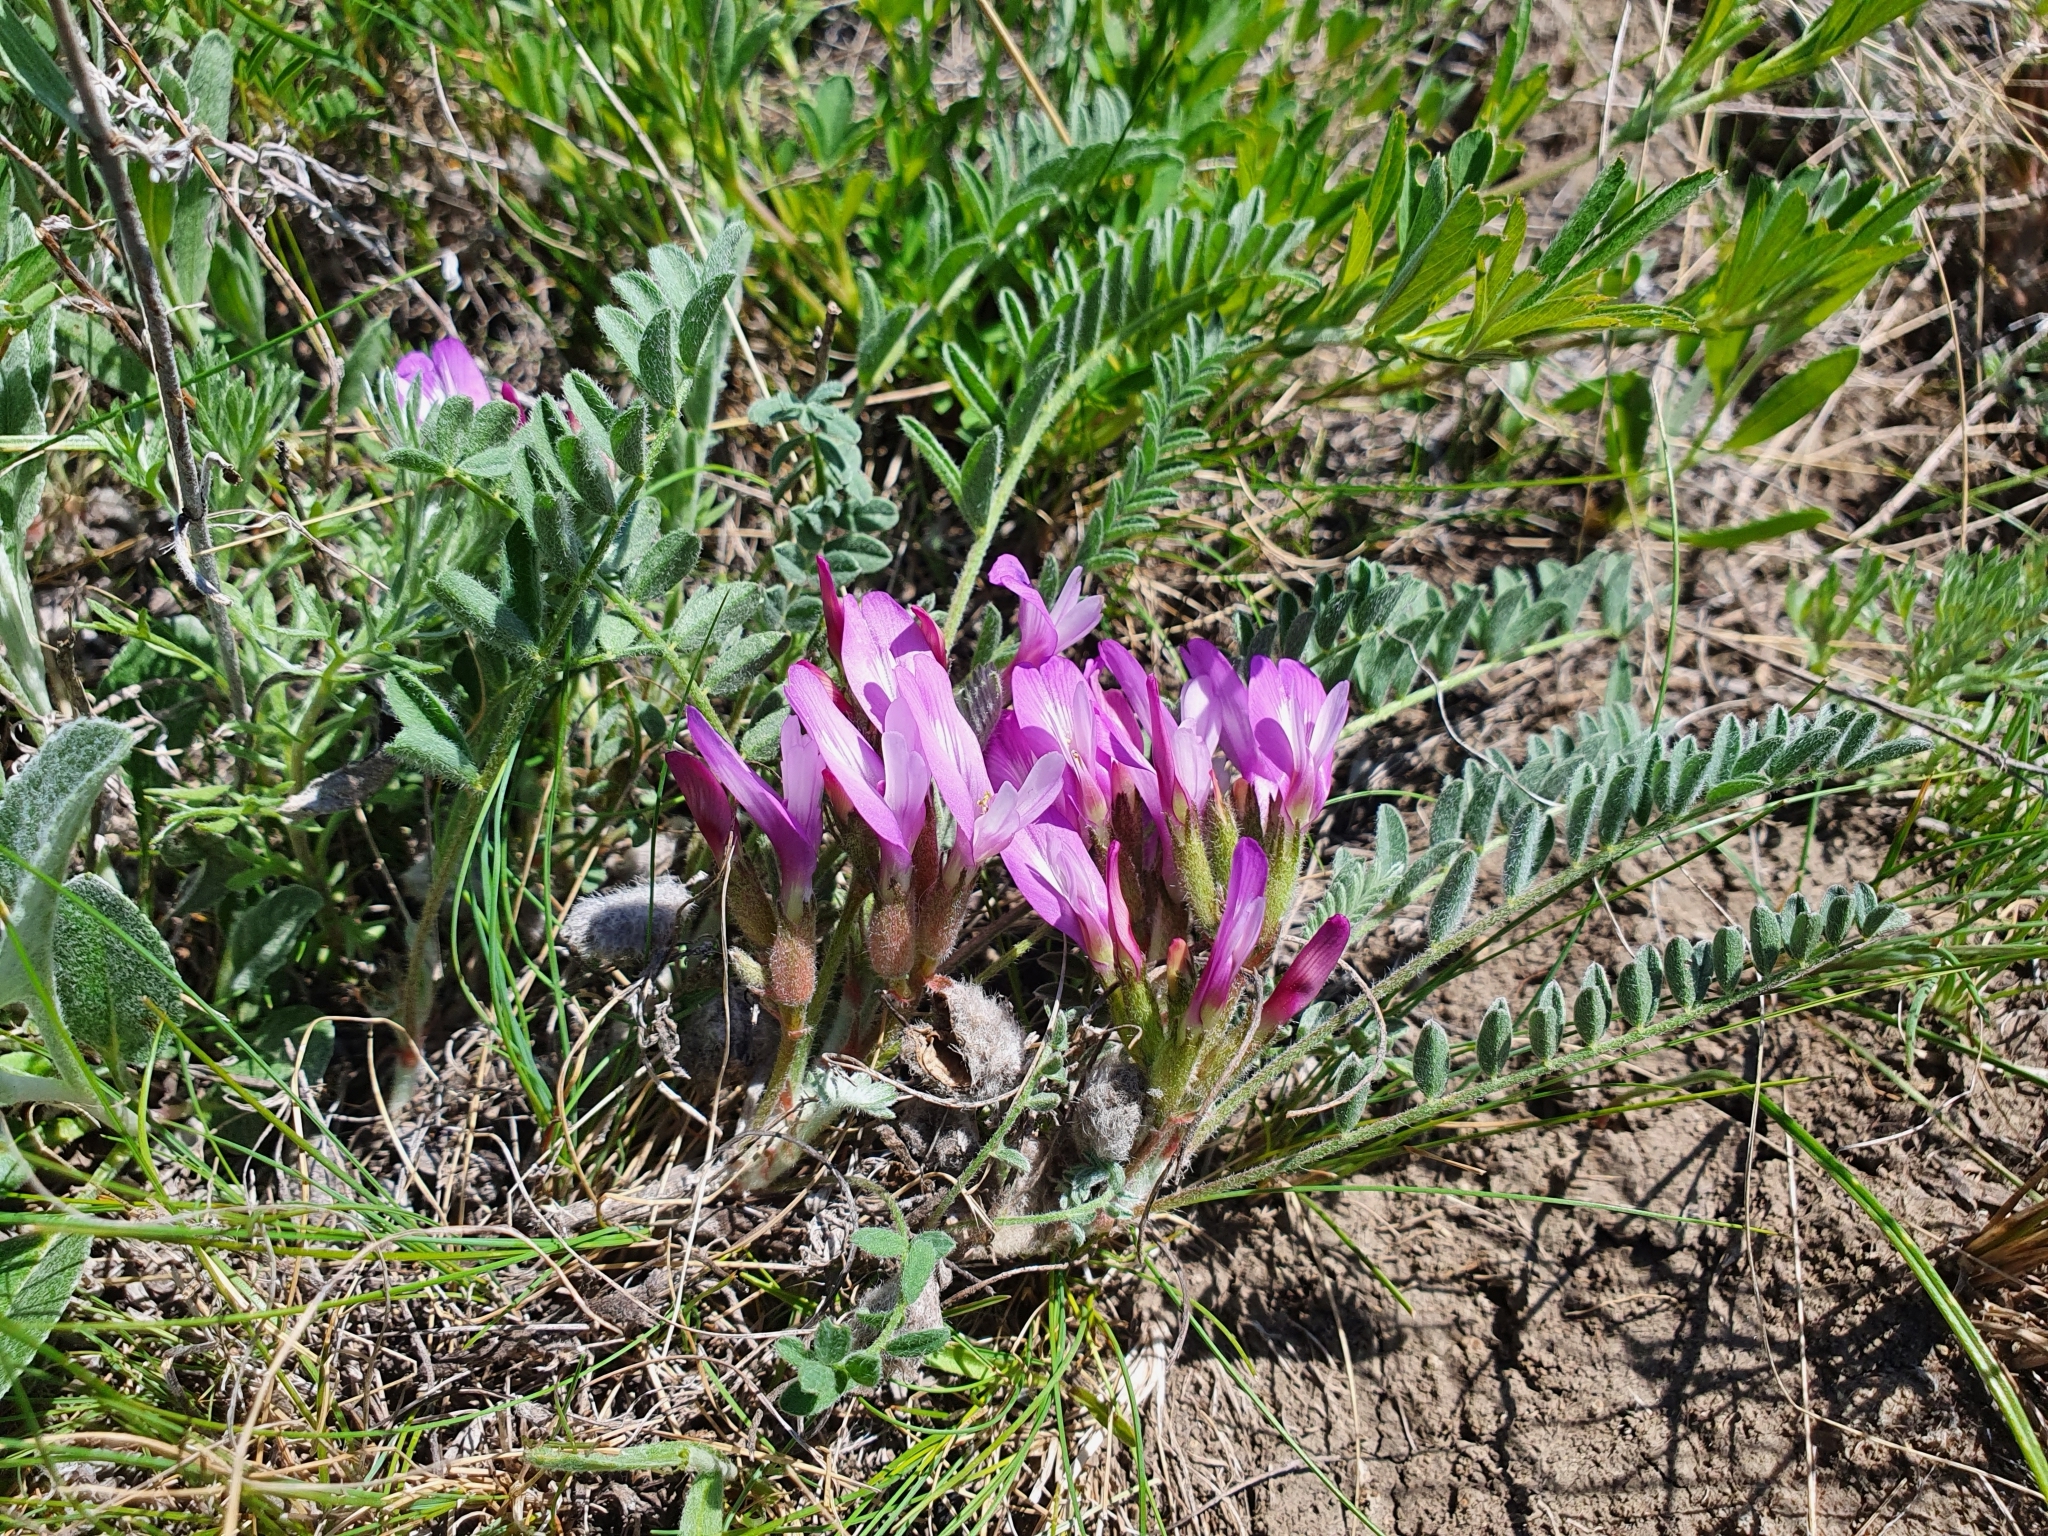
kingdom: Plantae
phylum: Tracheophyta
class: Magnoliopsida
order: Fabales
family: Fabaceae
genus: Astragalus
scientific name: Astragalus testiculatus
